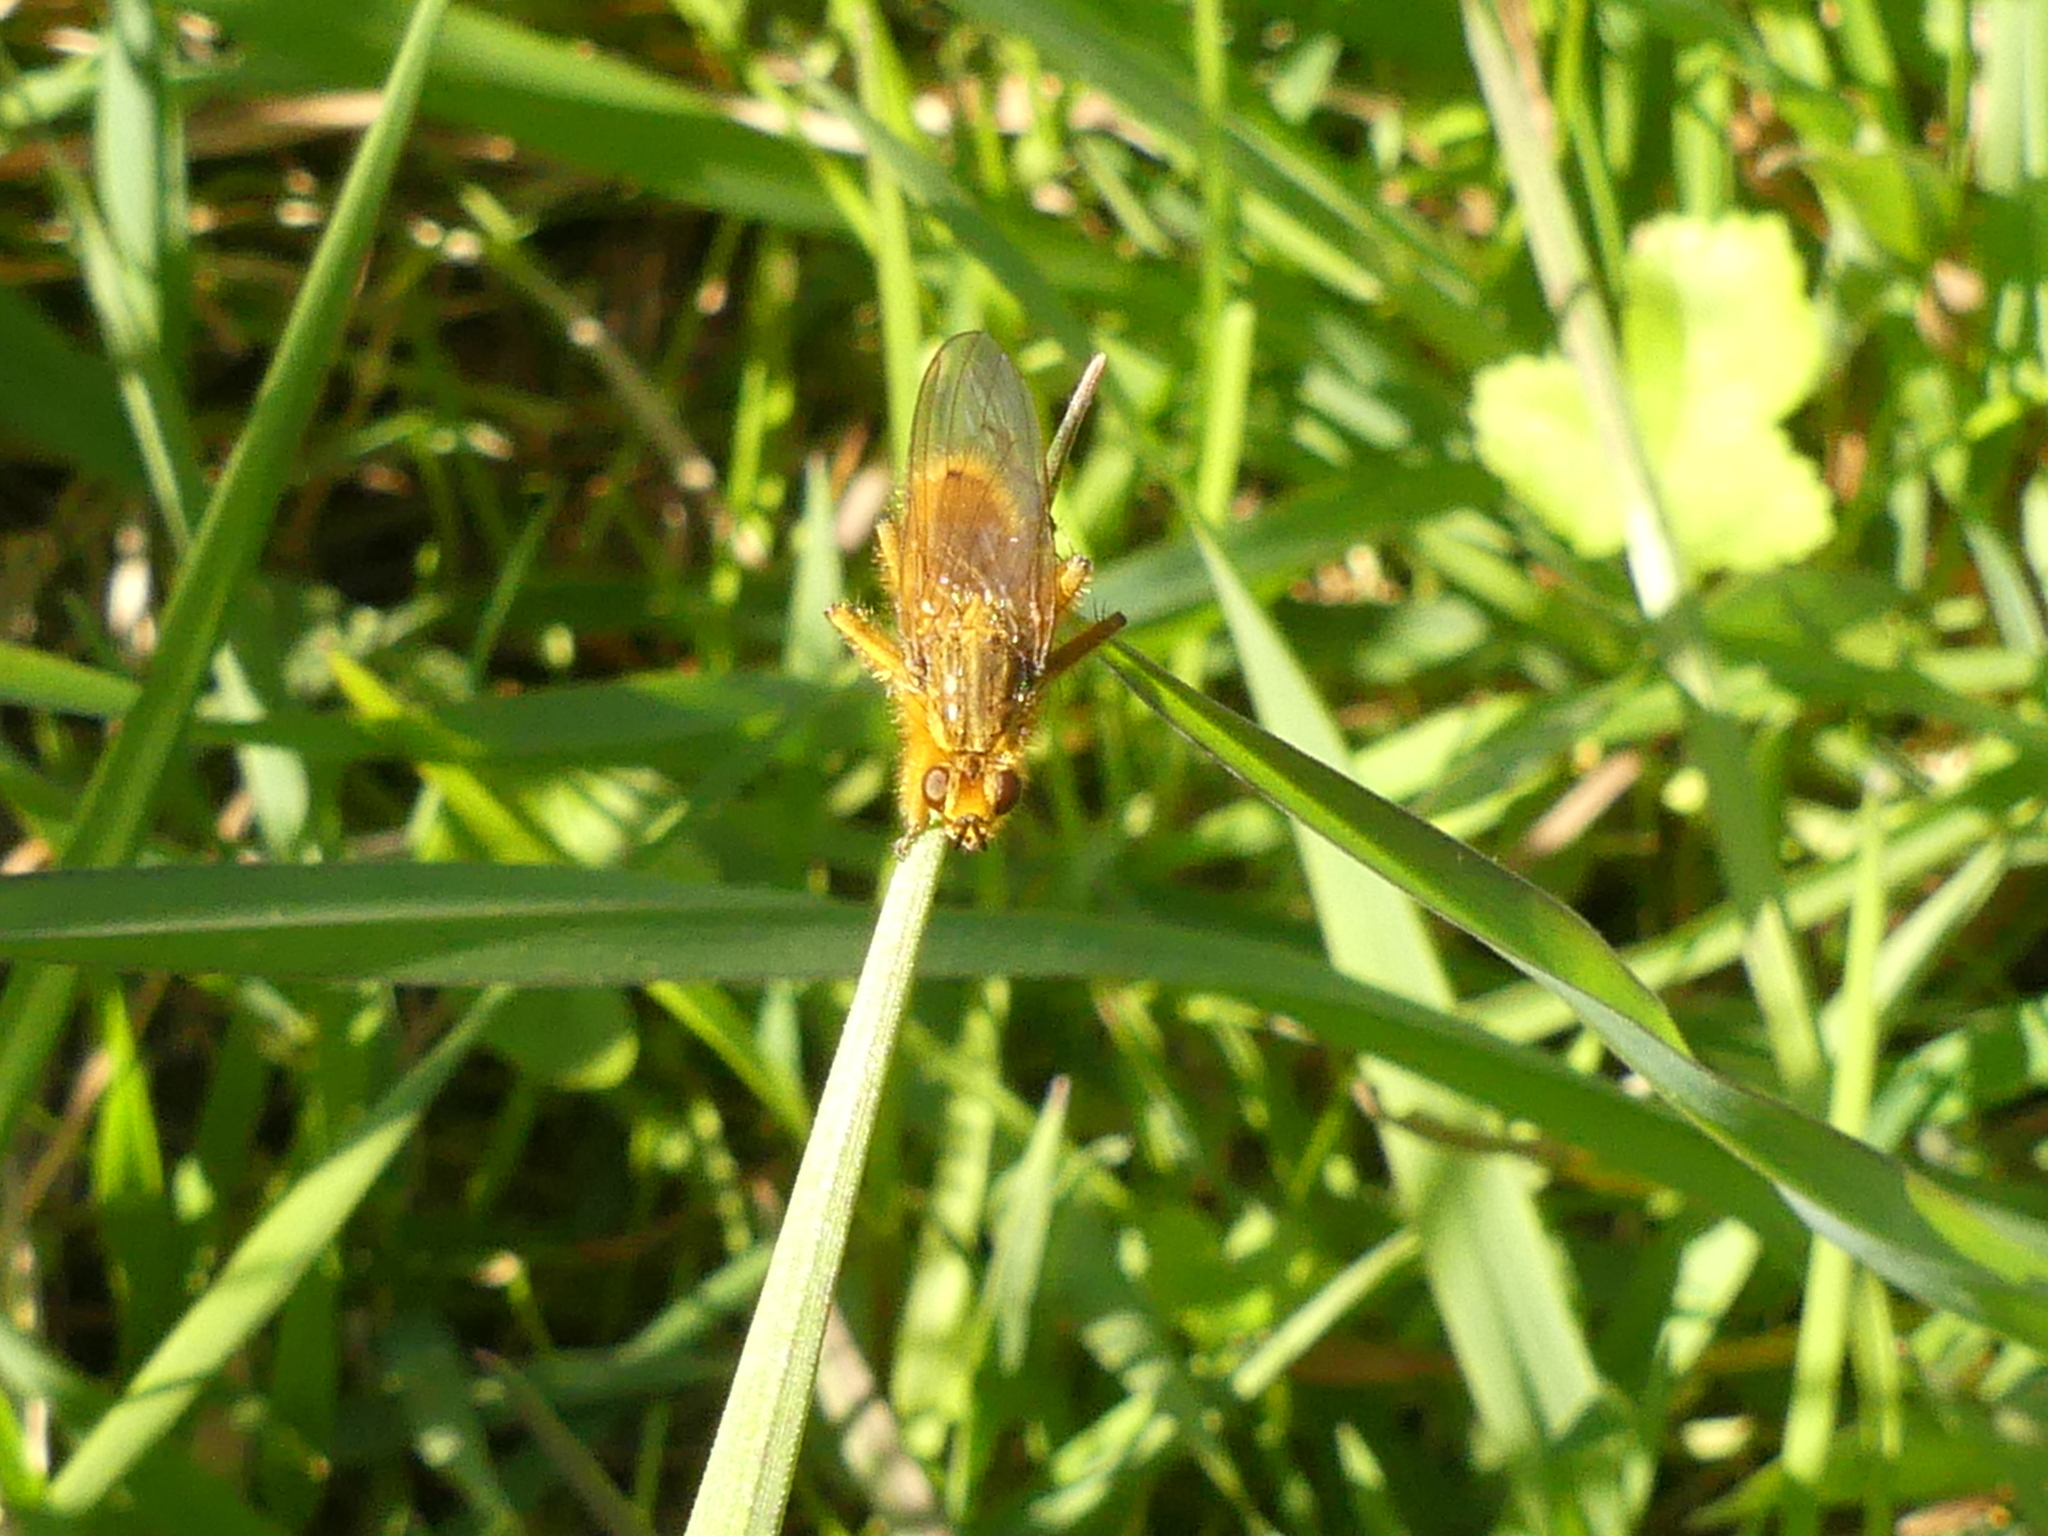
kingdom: Animalia
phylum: Arthropoda
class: Insecta
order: Diptera
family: Scathophagidae
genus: Scathophaga
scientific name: Scathophaga stercoraria
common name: Yellow dung fly
